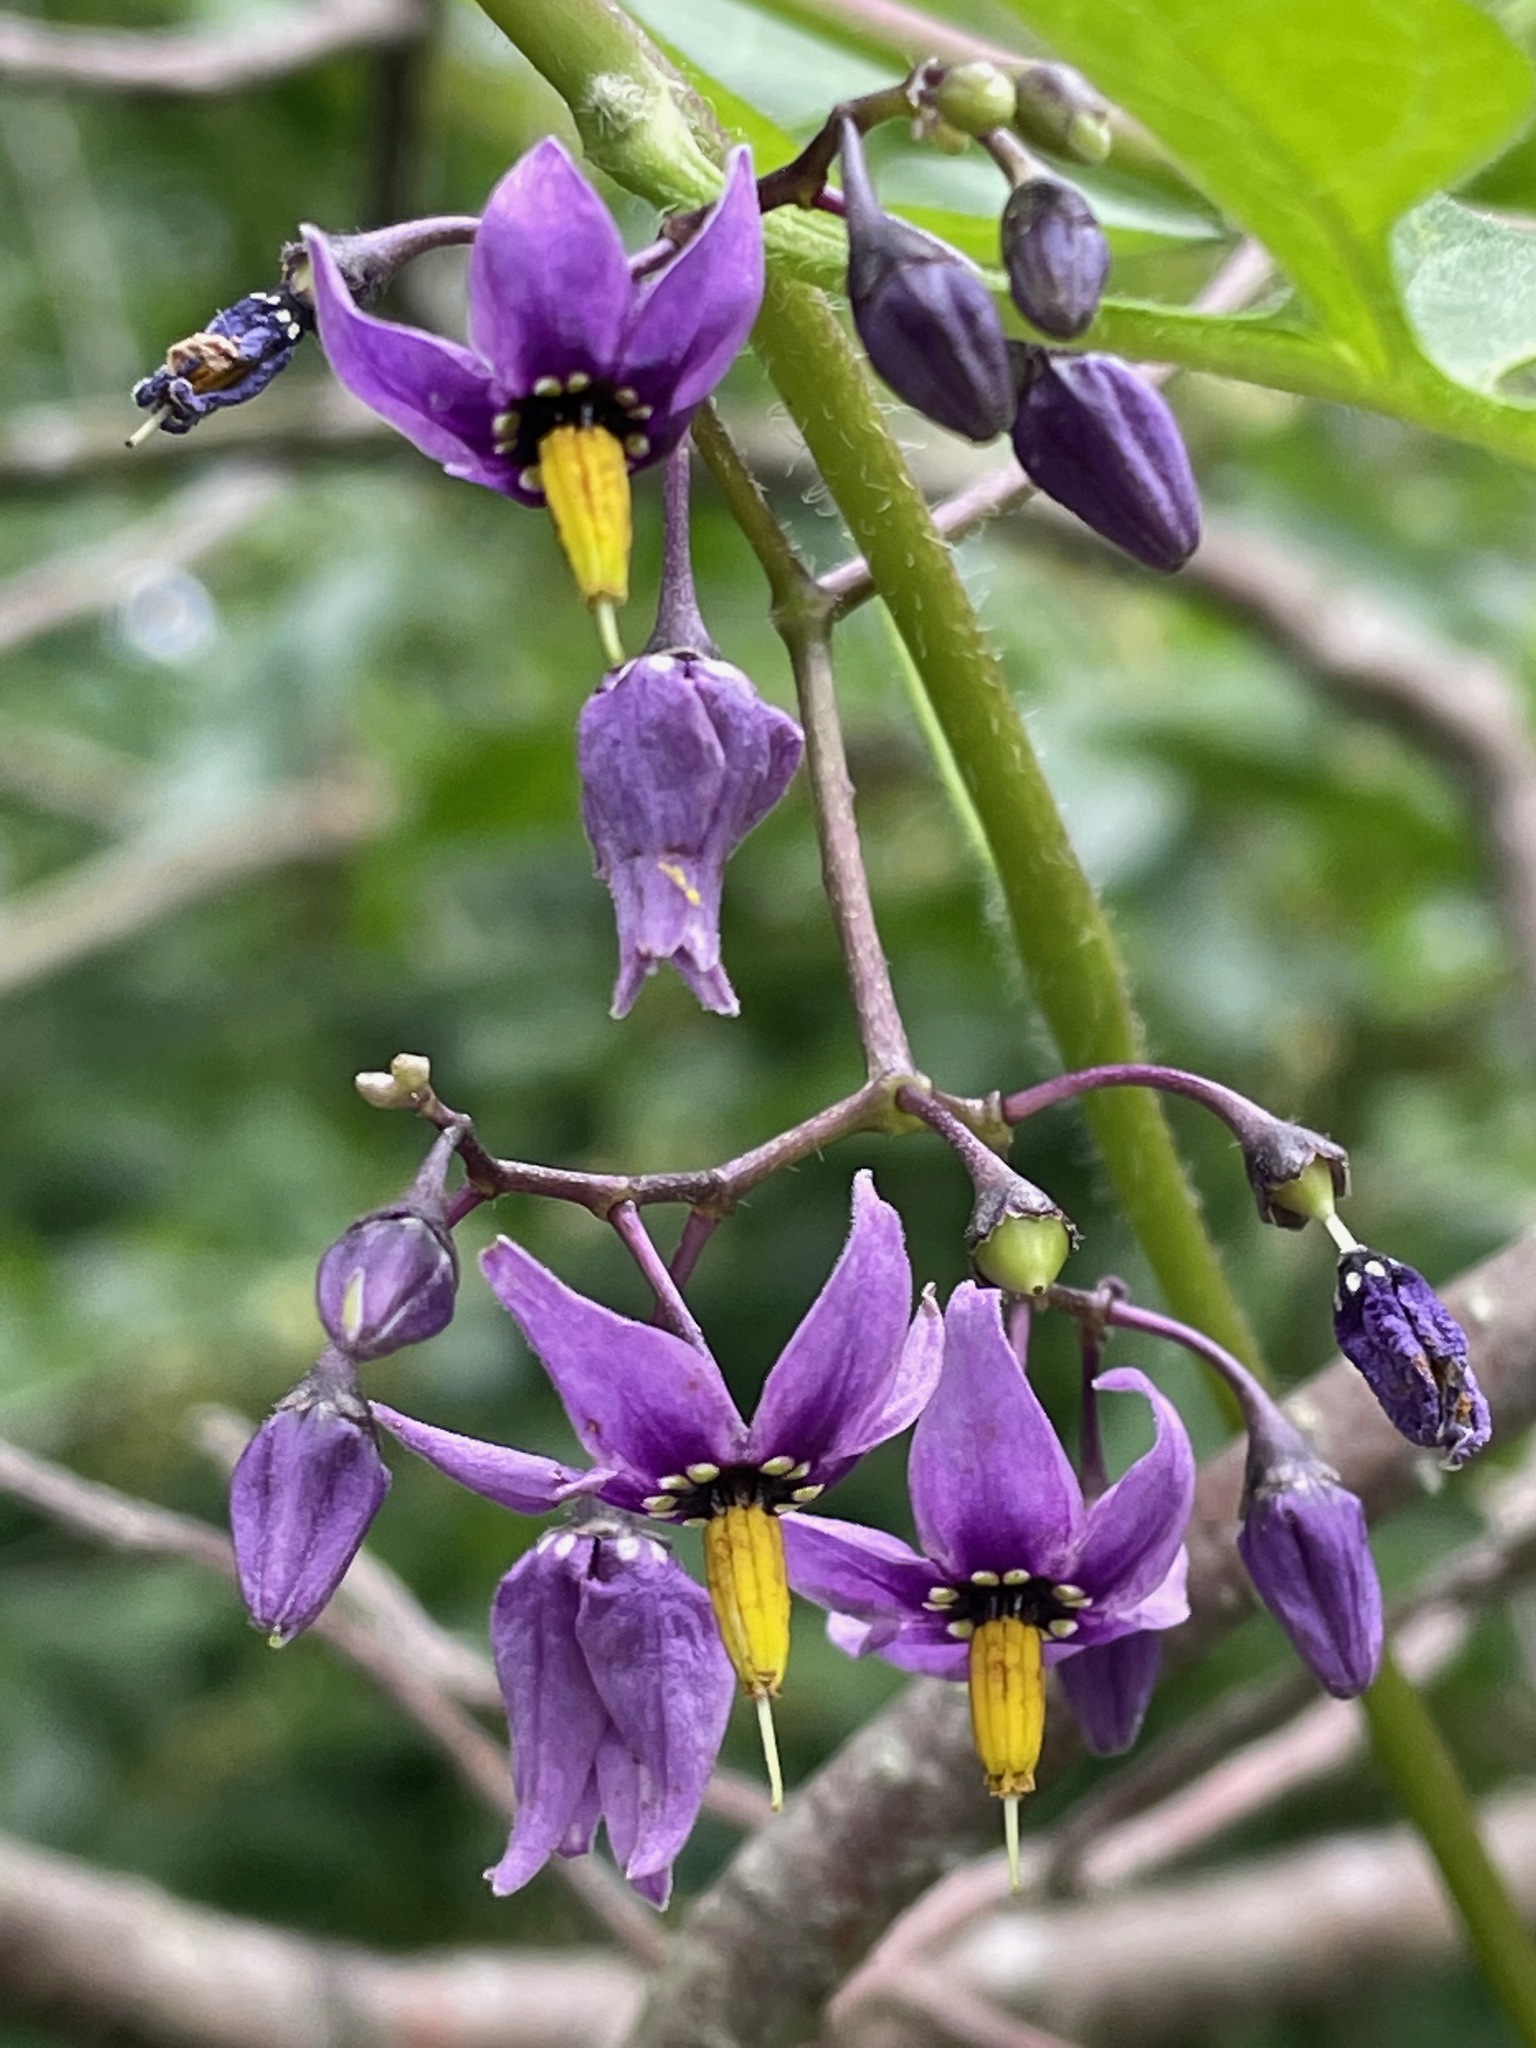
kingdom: Plantae
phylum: Tracheophyta
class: Magnoliopsida
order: Solanales
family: Solanaceae
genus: Solanum
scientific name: Solanum dulcamara
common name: Climbing nightshade
